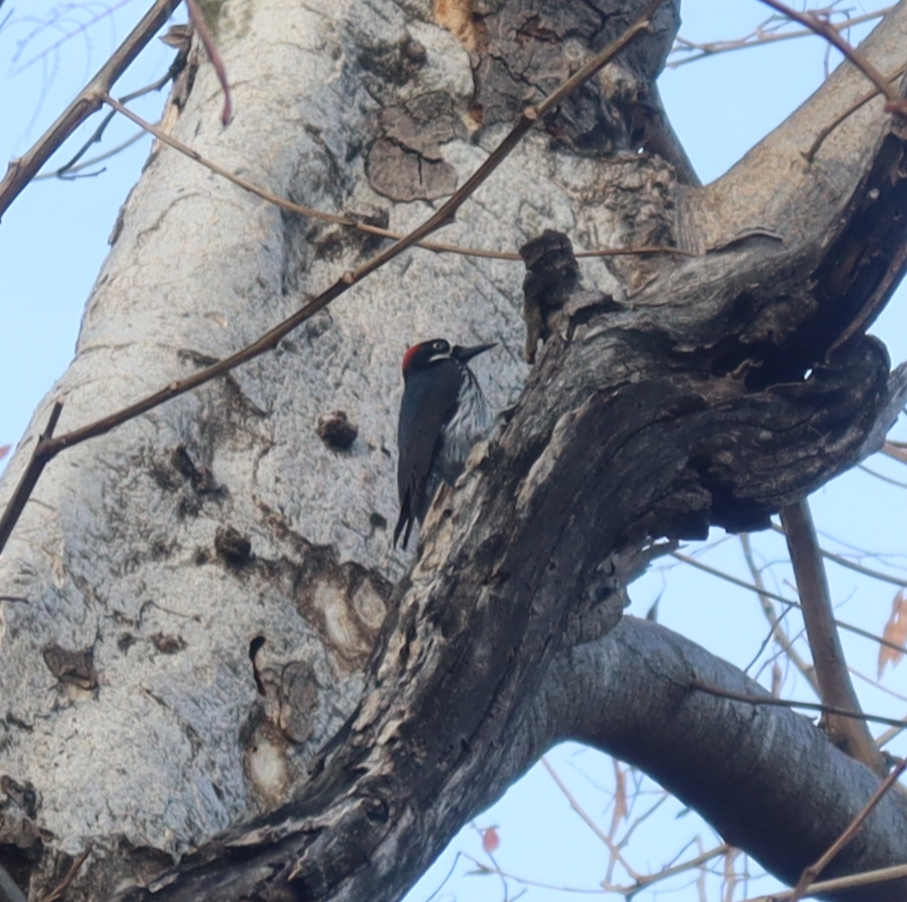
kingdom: Animalia
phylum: Chordata
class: Aves
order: Piciformes
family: Picidae
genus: Melanerpes
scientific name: Melanerpes formicivorus
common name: Acorn woodpecker
